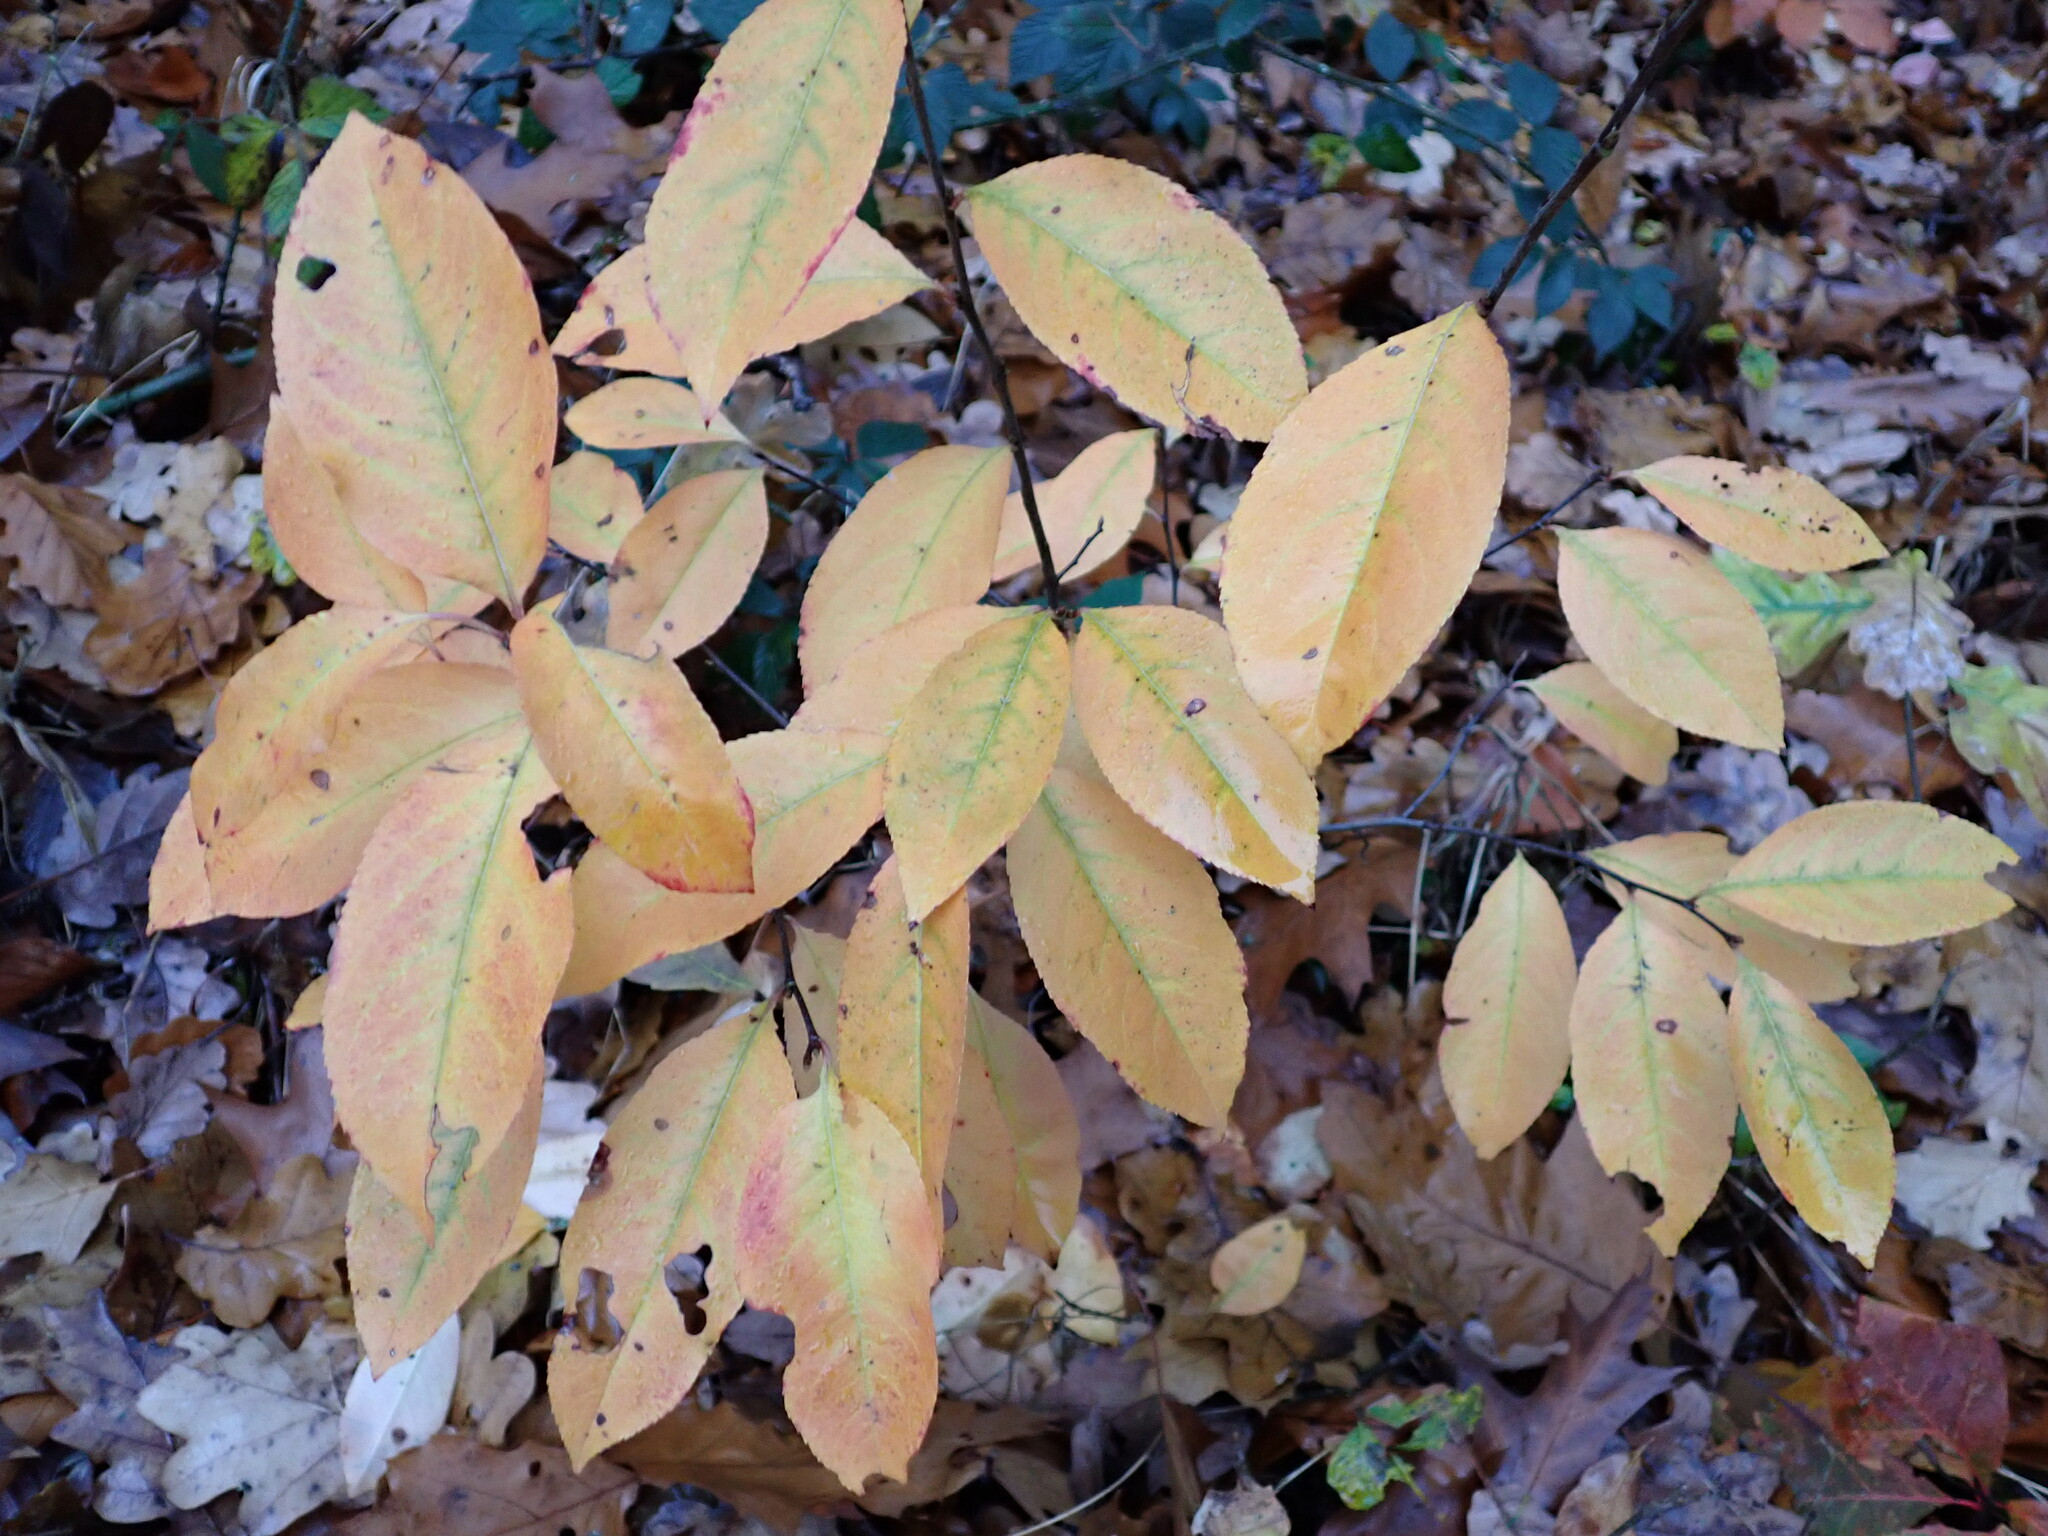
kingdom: Plantae
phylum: Tracheophyta
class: Magnoliopsida
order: Rosales
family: Rosaceae
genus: Prunus
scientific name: Prunus serotina
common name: Black cherry
